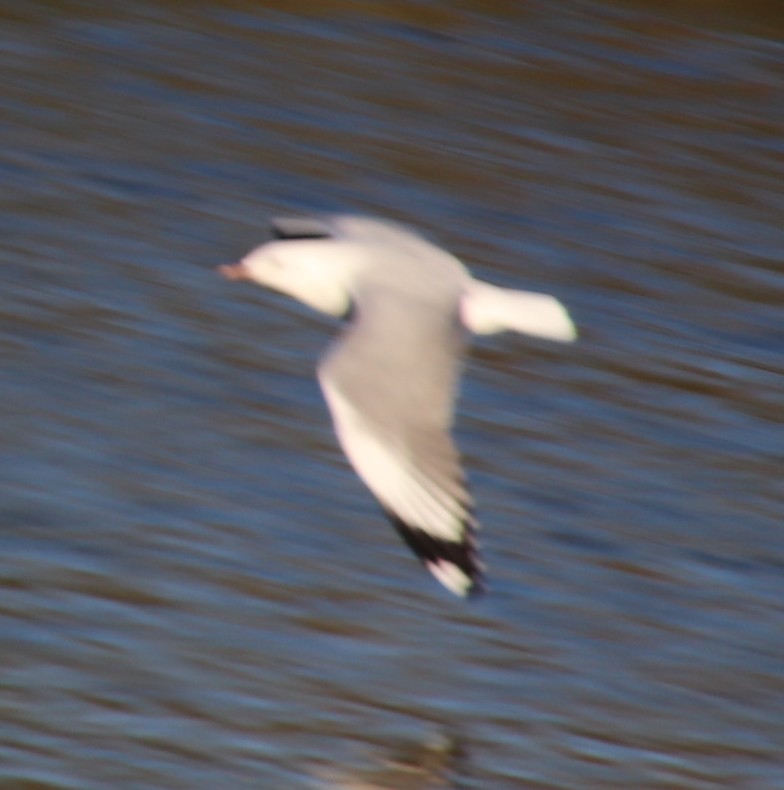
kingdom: Animalia
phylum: Chordata
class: Aves
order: Charadriiformes
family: Laridae
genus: Chroicocephalus
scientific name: Chroicocephalus hartlaubii
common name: Hartlaub's gull
